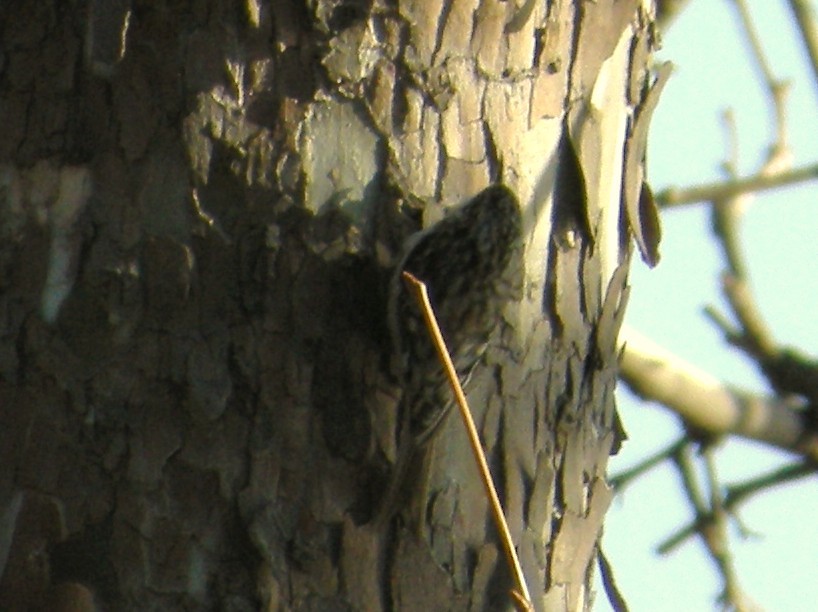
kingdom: Animalia
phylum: Chordata
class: Aves
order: Passeriformes
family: Certhiidae
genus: Certhia
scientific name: Certhia americana
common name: Brown creeper
